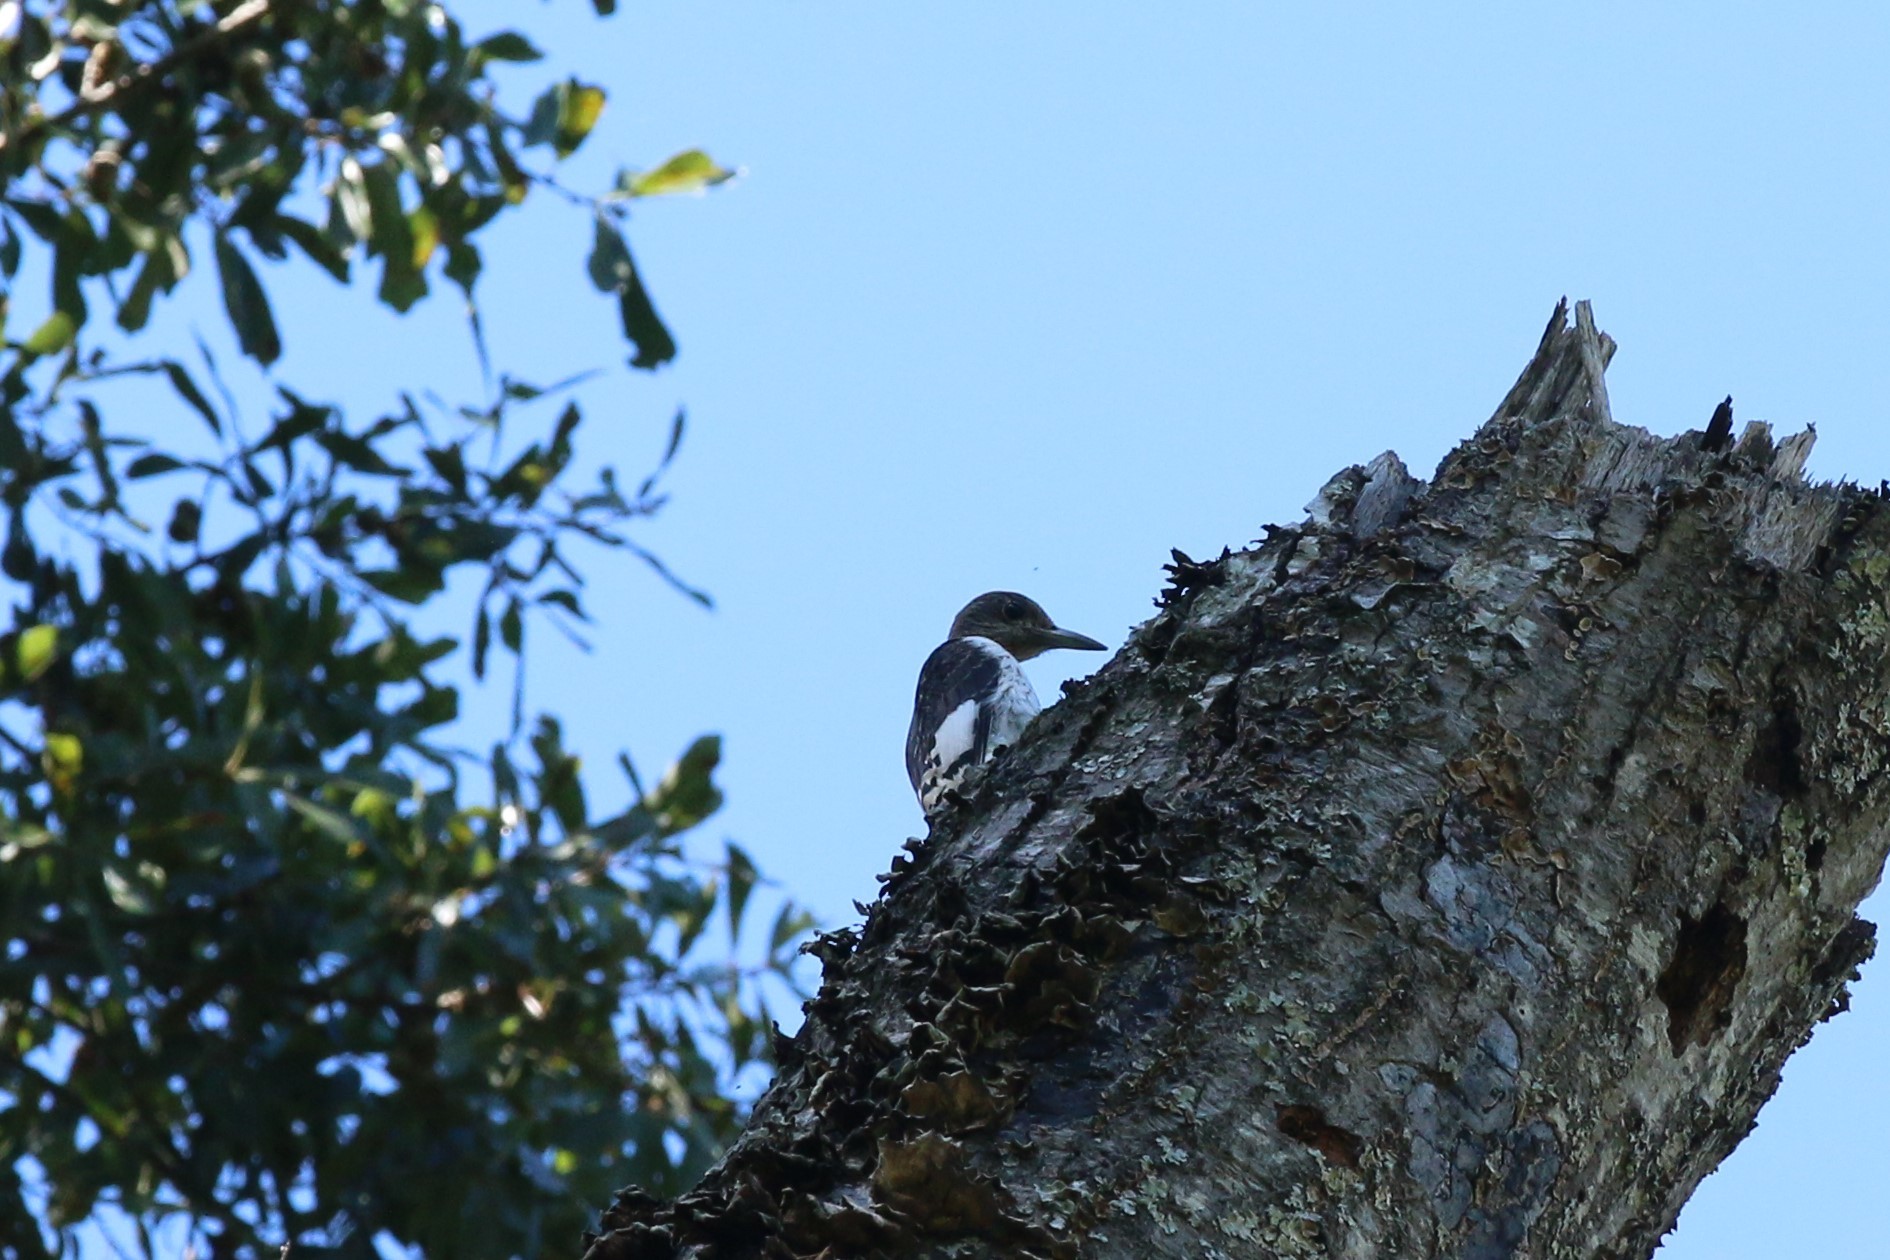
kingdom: Animalia
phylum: Chordata
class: Aves
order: Piciformes
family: Picidae
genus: Melanerpes
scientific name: Melanerpes erythrocephalus
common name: Red-headed woodpecker
